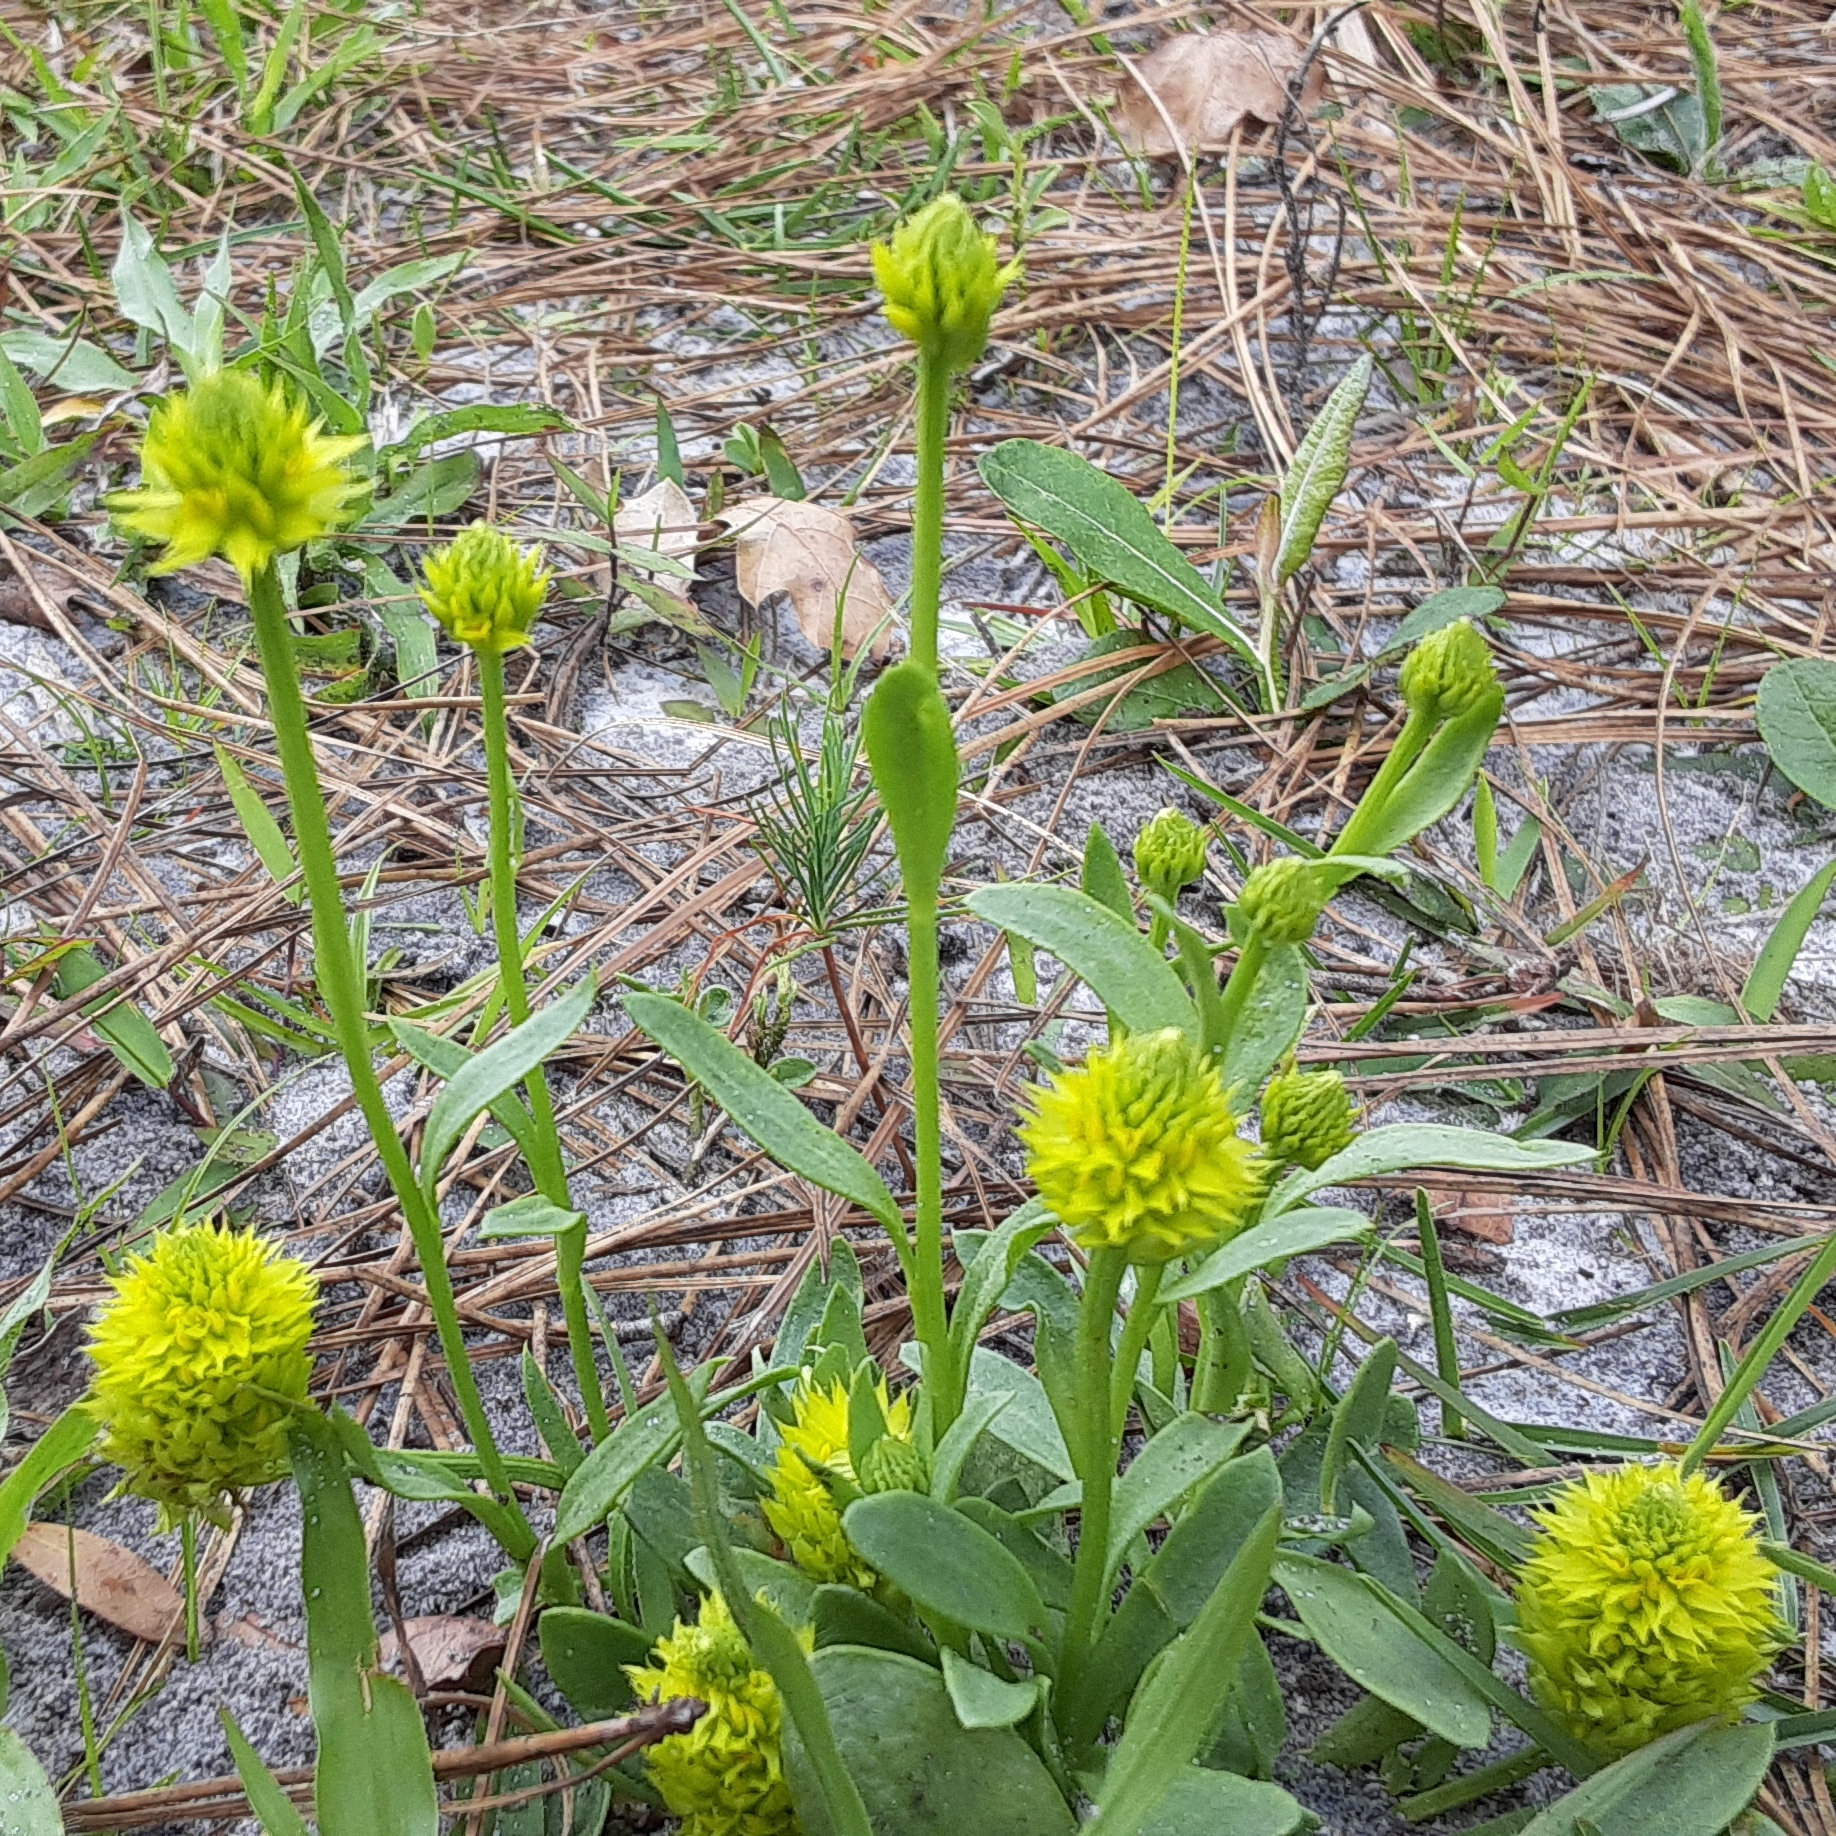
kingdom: Plantae
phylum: Tracheophyta
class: Magnoliopsida
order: Fabales
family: Polygalaceae
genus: Polygala
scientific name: Polygala nana
